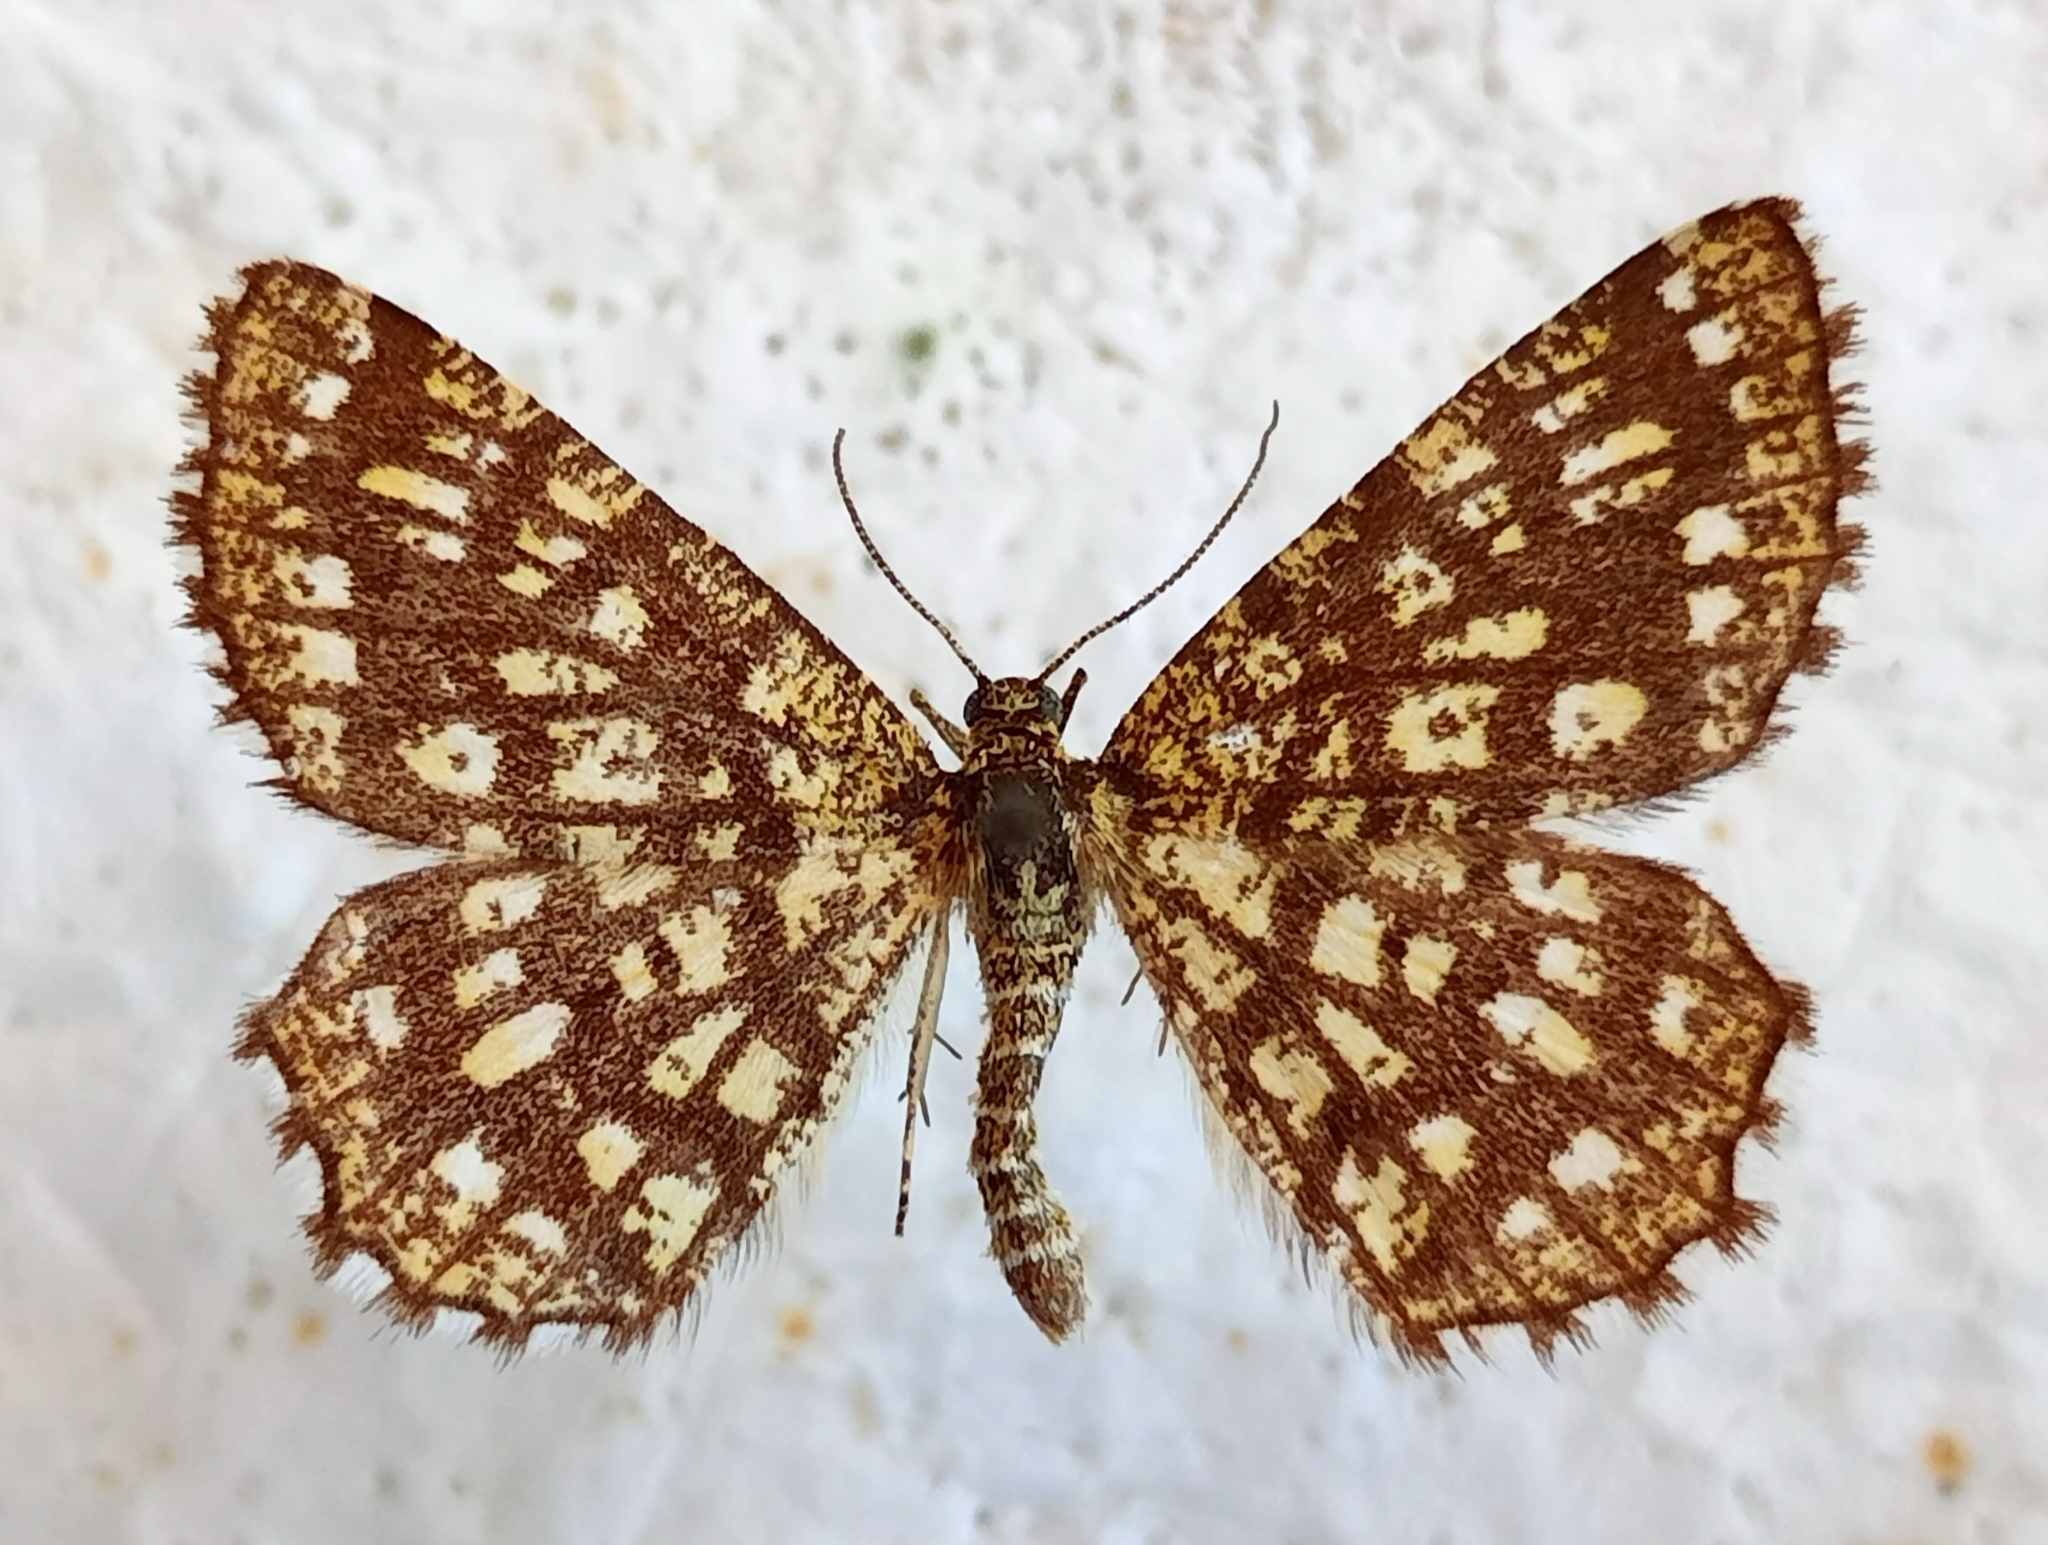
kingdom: Animalia
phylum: Arthropoda
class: Insecta
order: Lepidoptera
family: Geometridae
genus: Chiasmia
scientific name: Chiasmia clathrata
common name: Latticed heath
